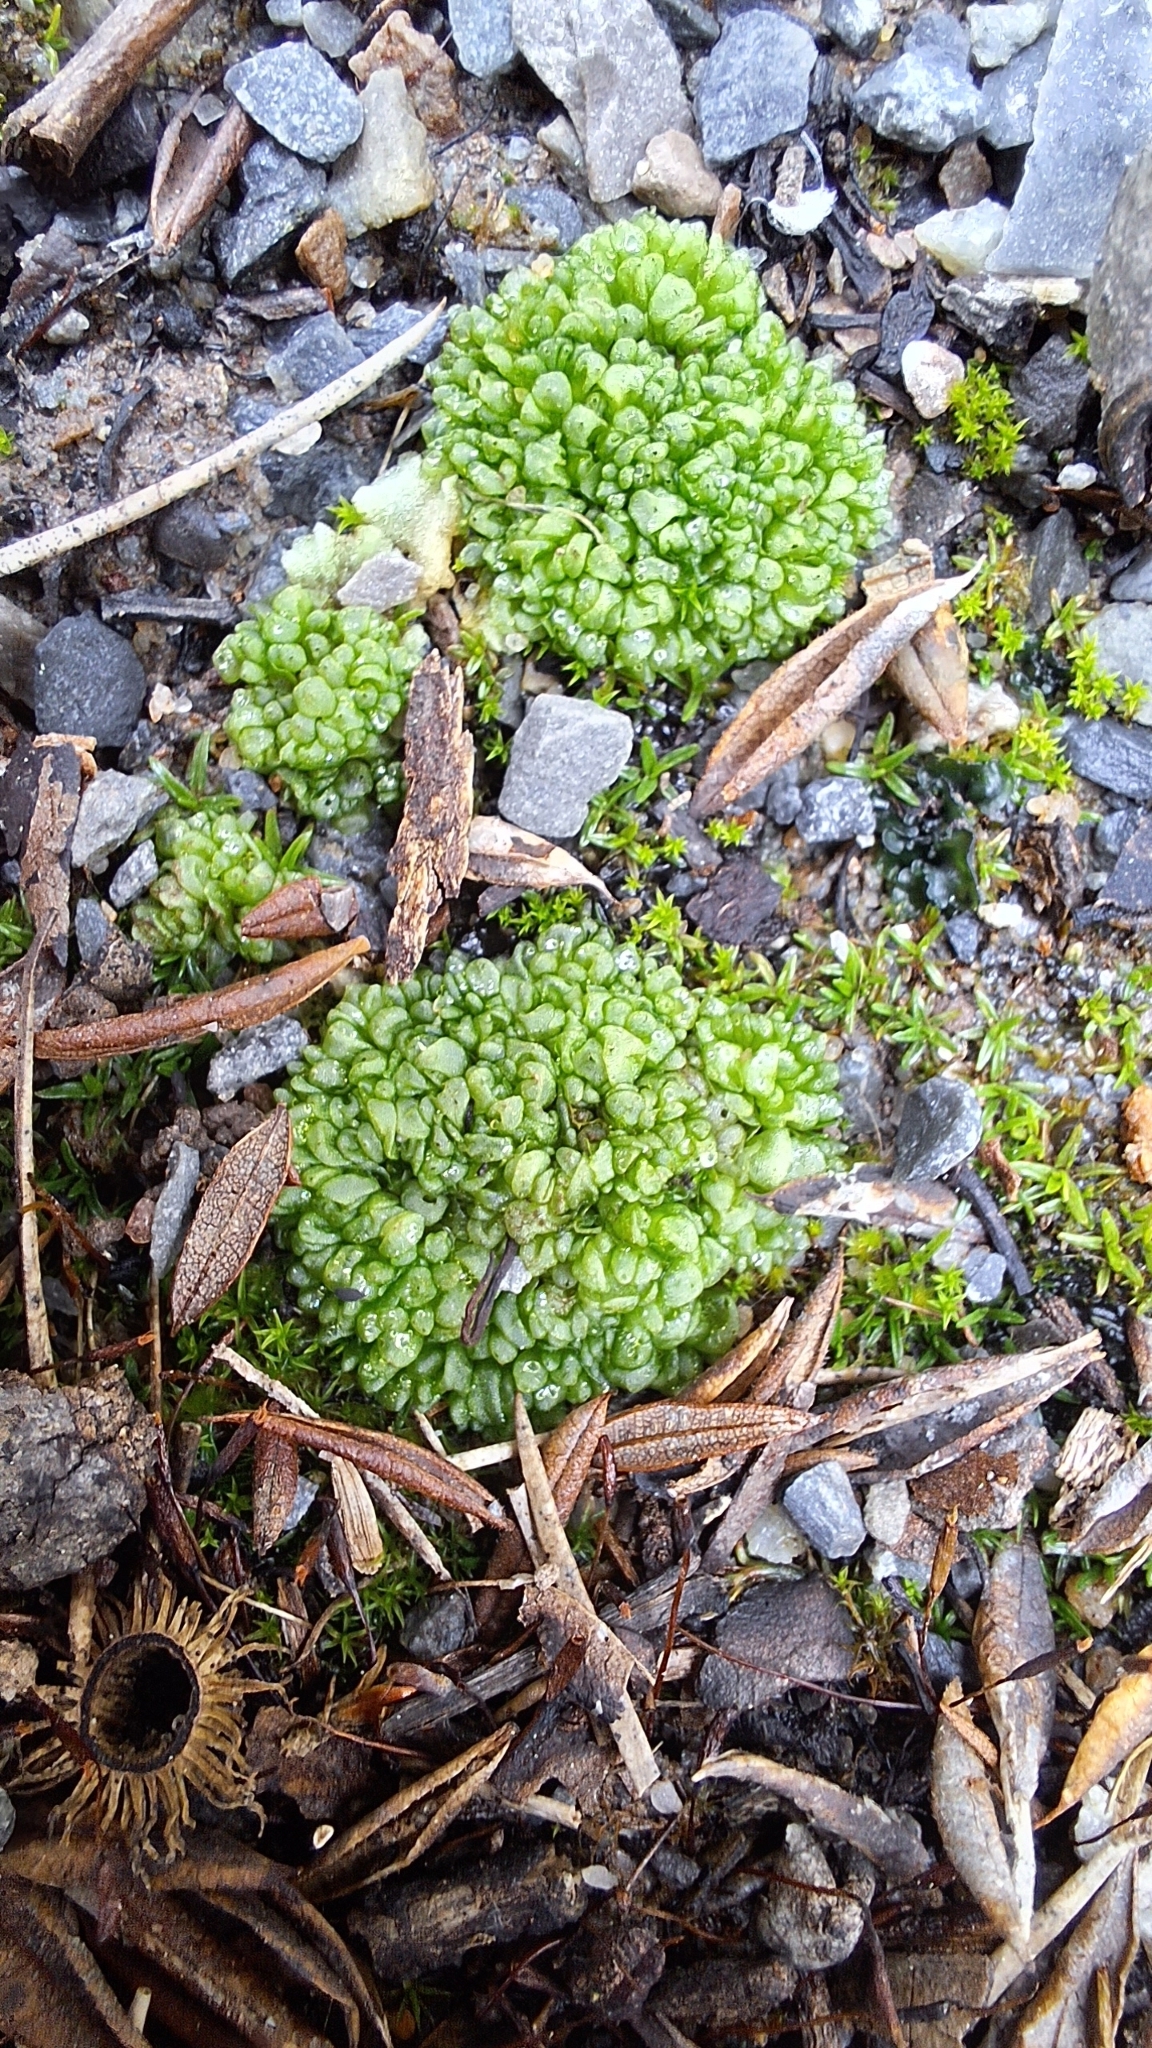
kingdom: Plantae
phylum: Marchantiophyta
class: Marchantiopsida
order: Sphaerocarpales
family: Sphaerocarpaceae
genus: Sphaerocarpos
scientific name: Sphaerocarpos texanus
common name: Texas balloonwort
